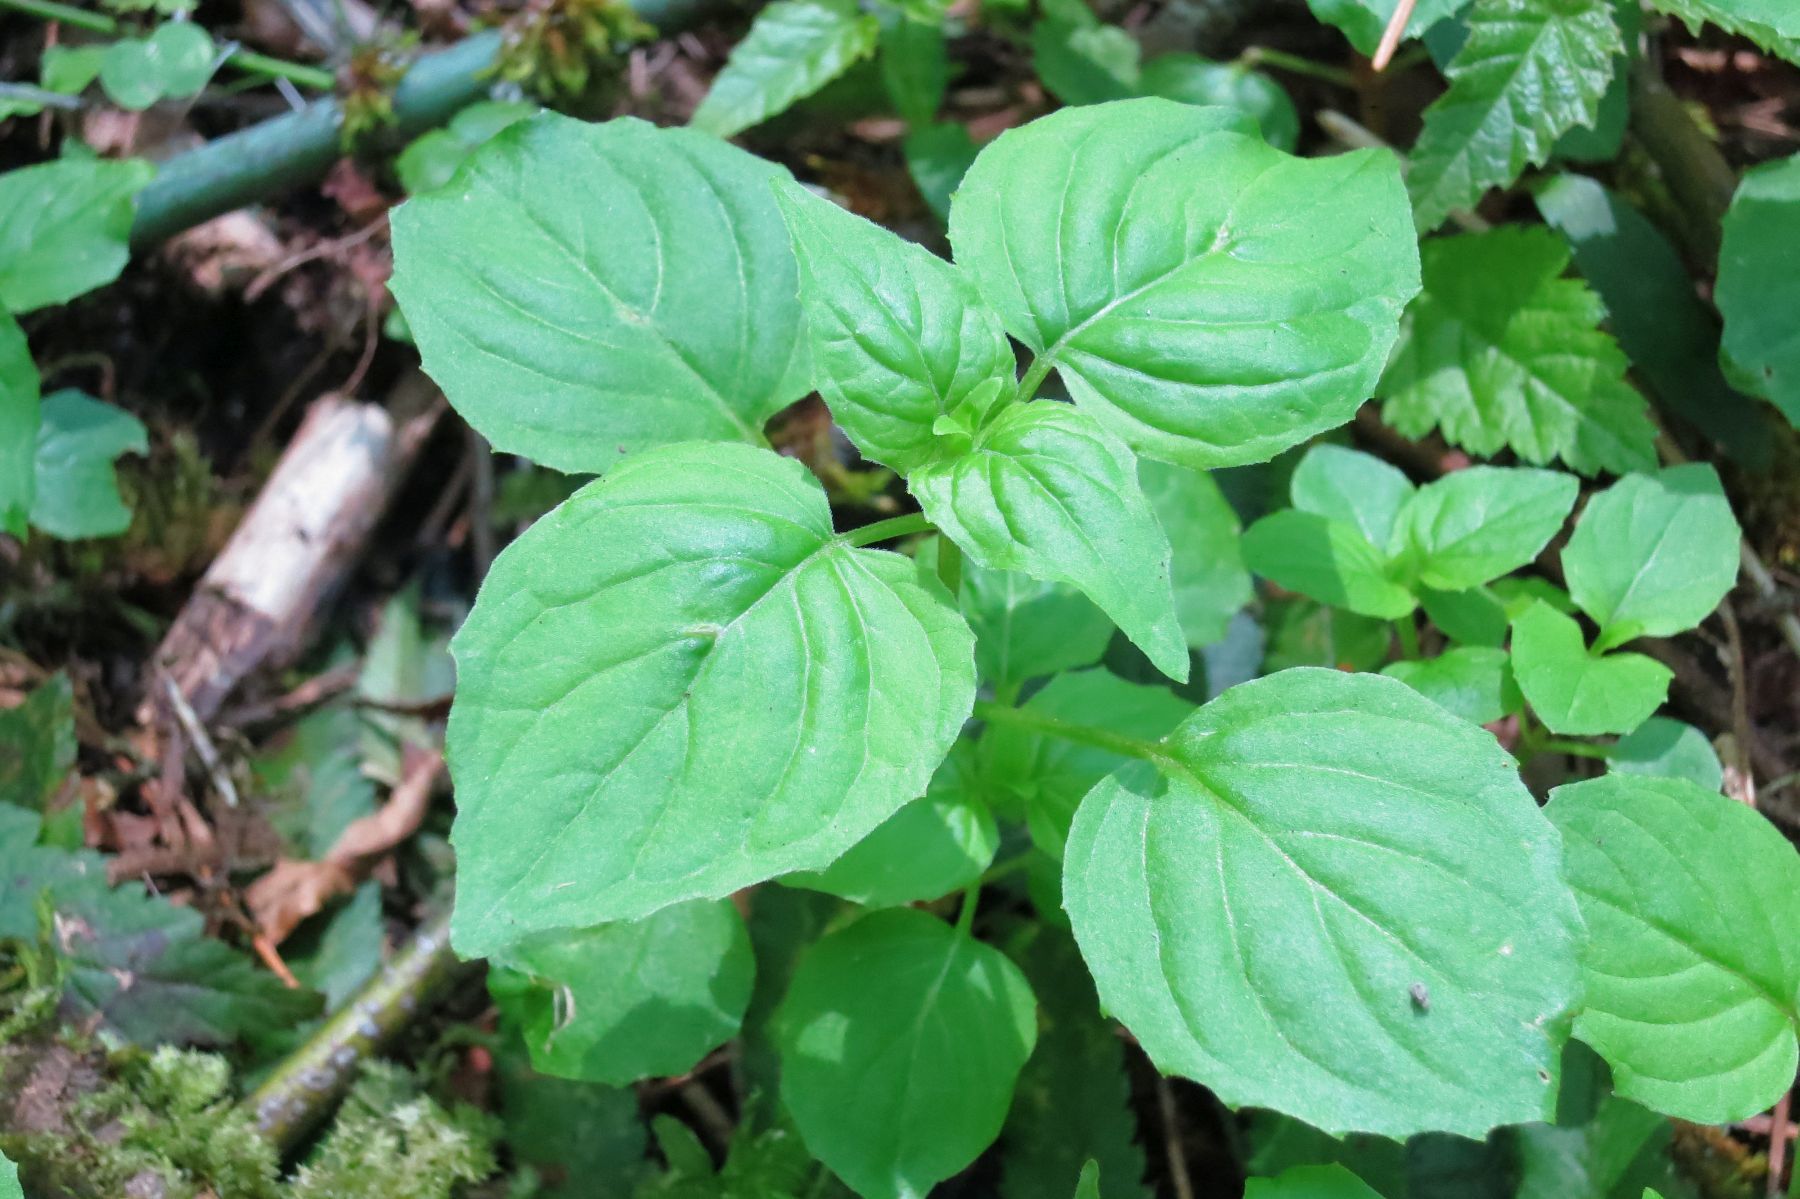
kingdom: Plantae
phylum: Tracheophyta
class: Magnoliopsida
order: Myrtales
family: Onagraceae
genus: Circaea
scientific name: Circaea alpina
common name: Alpine enchanter's-nightshade
